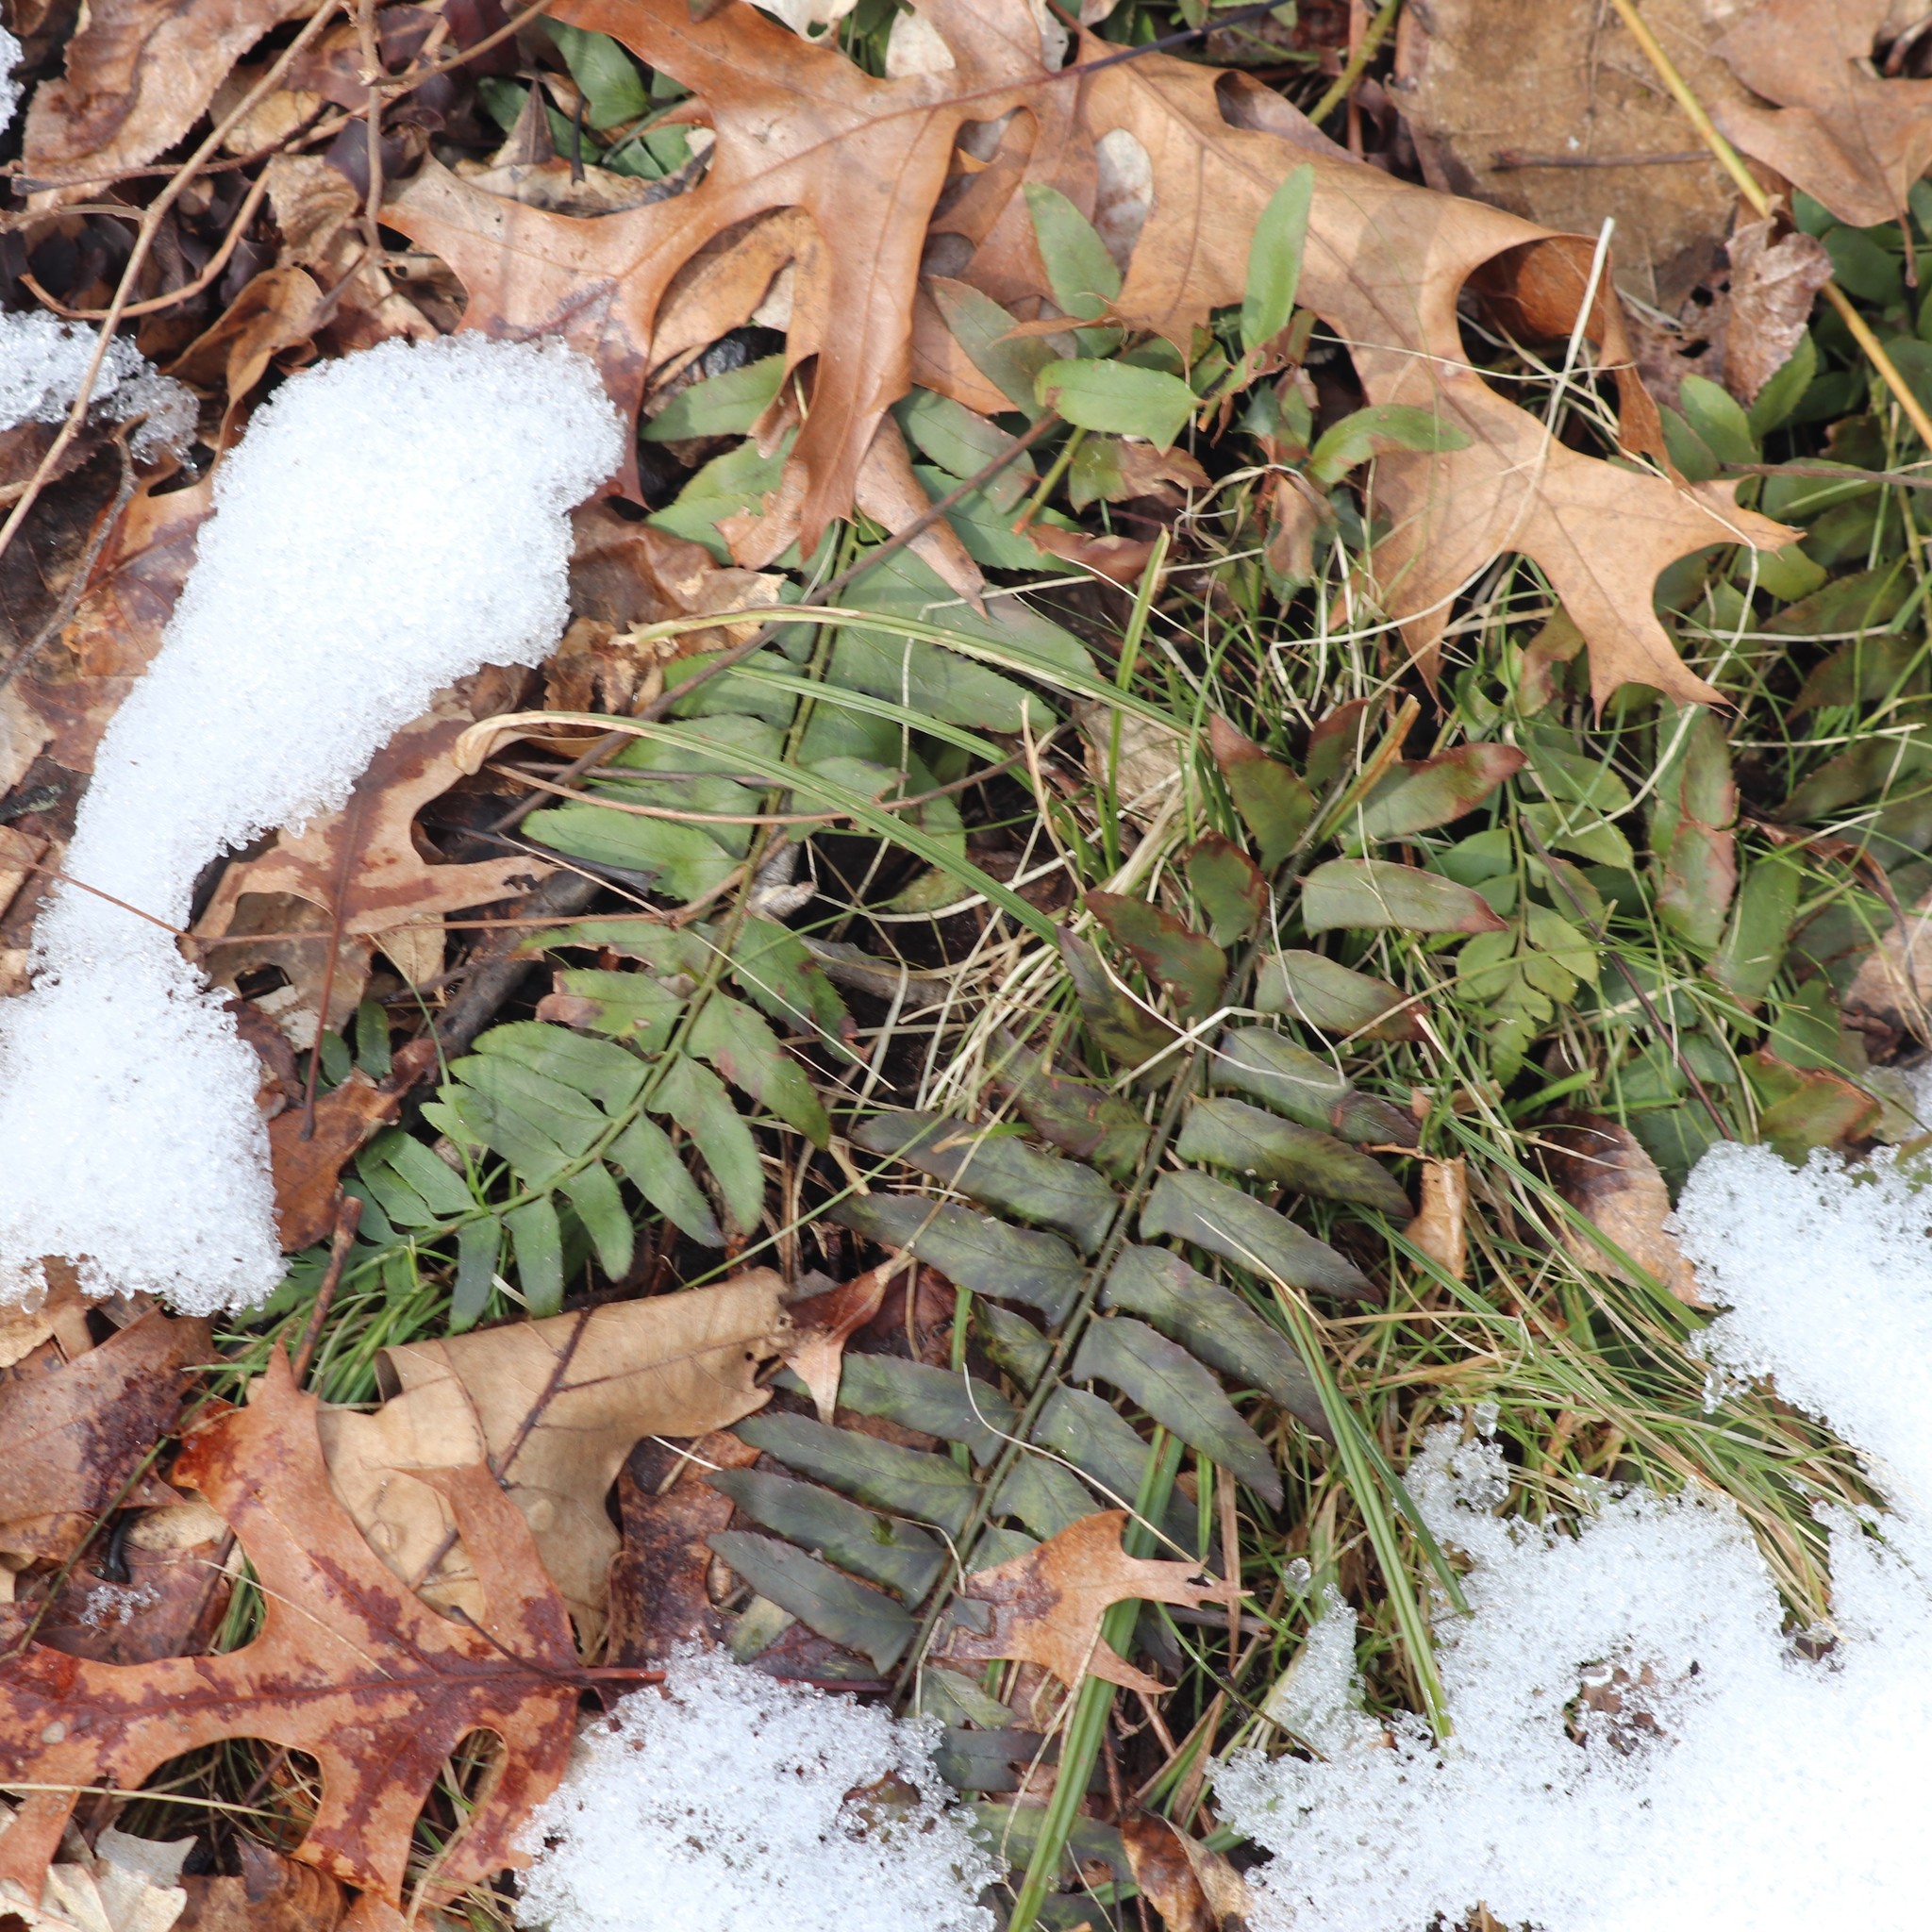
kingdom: Plantae
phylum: Tracheophyta
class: Polypodiopsida
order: Polypodiales
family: Dryopteridaceae
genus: Polystichum
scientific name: Polystichum acrostichoides
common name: Christmas fern
